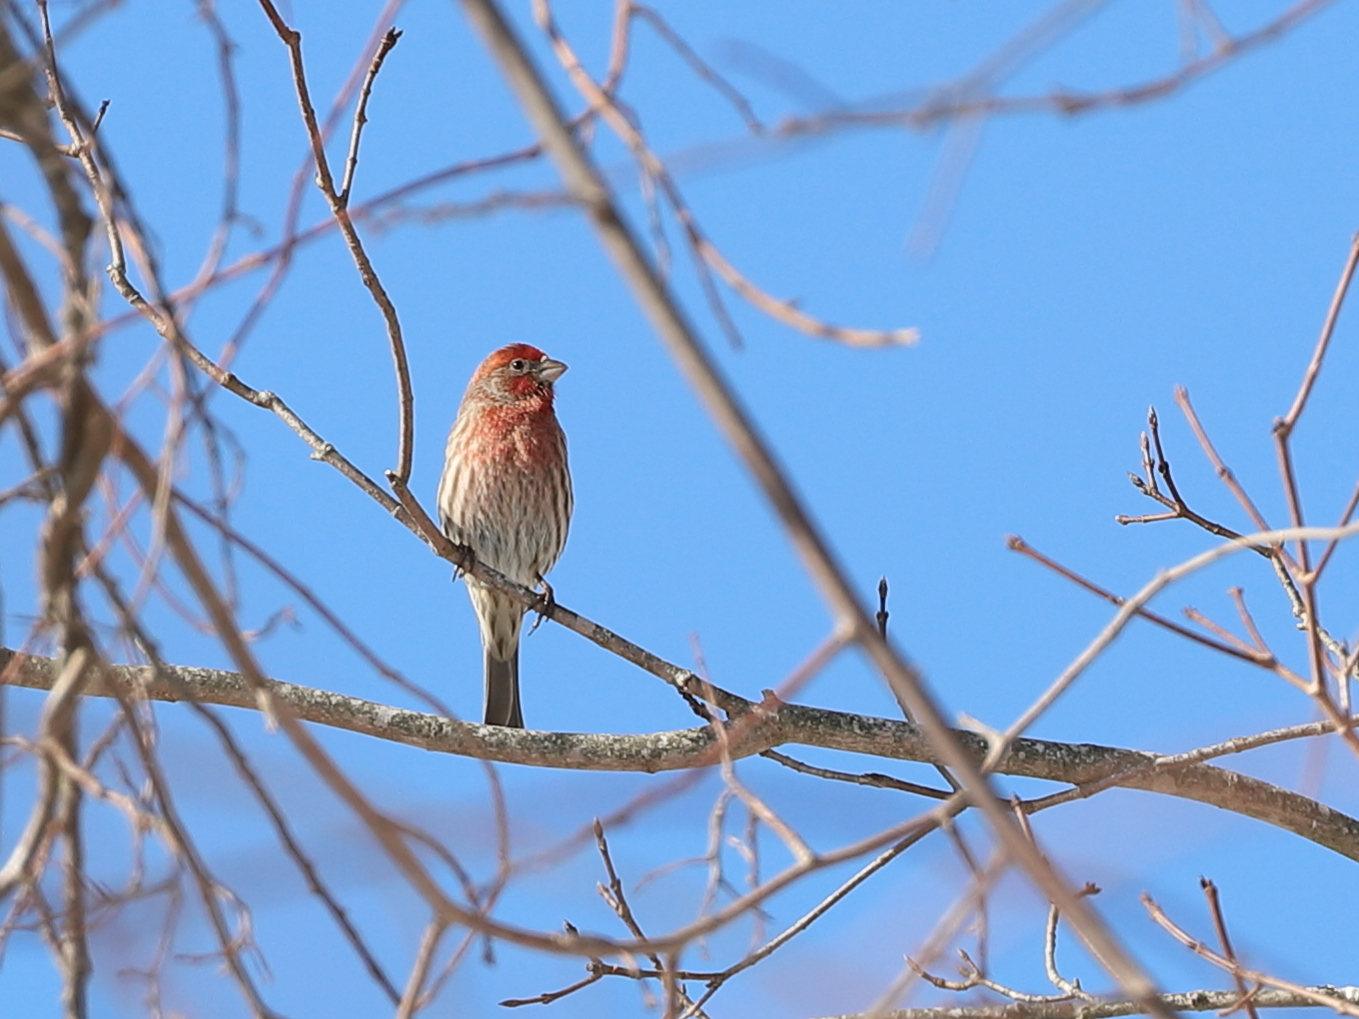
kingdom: Animalia
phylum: Chordata
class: Aves
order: Passeriformes
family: Fringillidae
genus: Haemorhous
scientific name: Haemorhous mexicanus
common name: House finch
